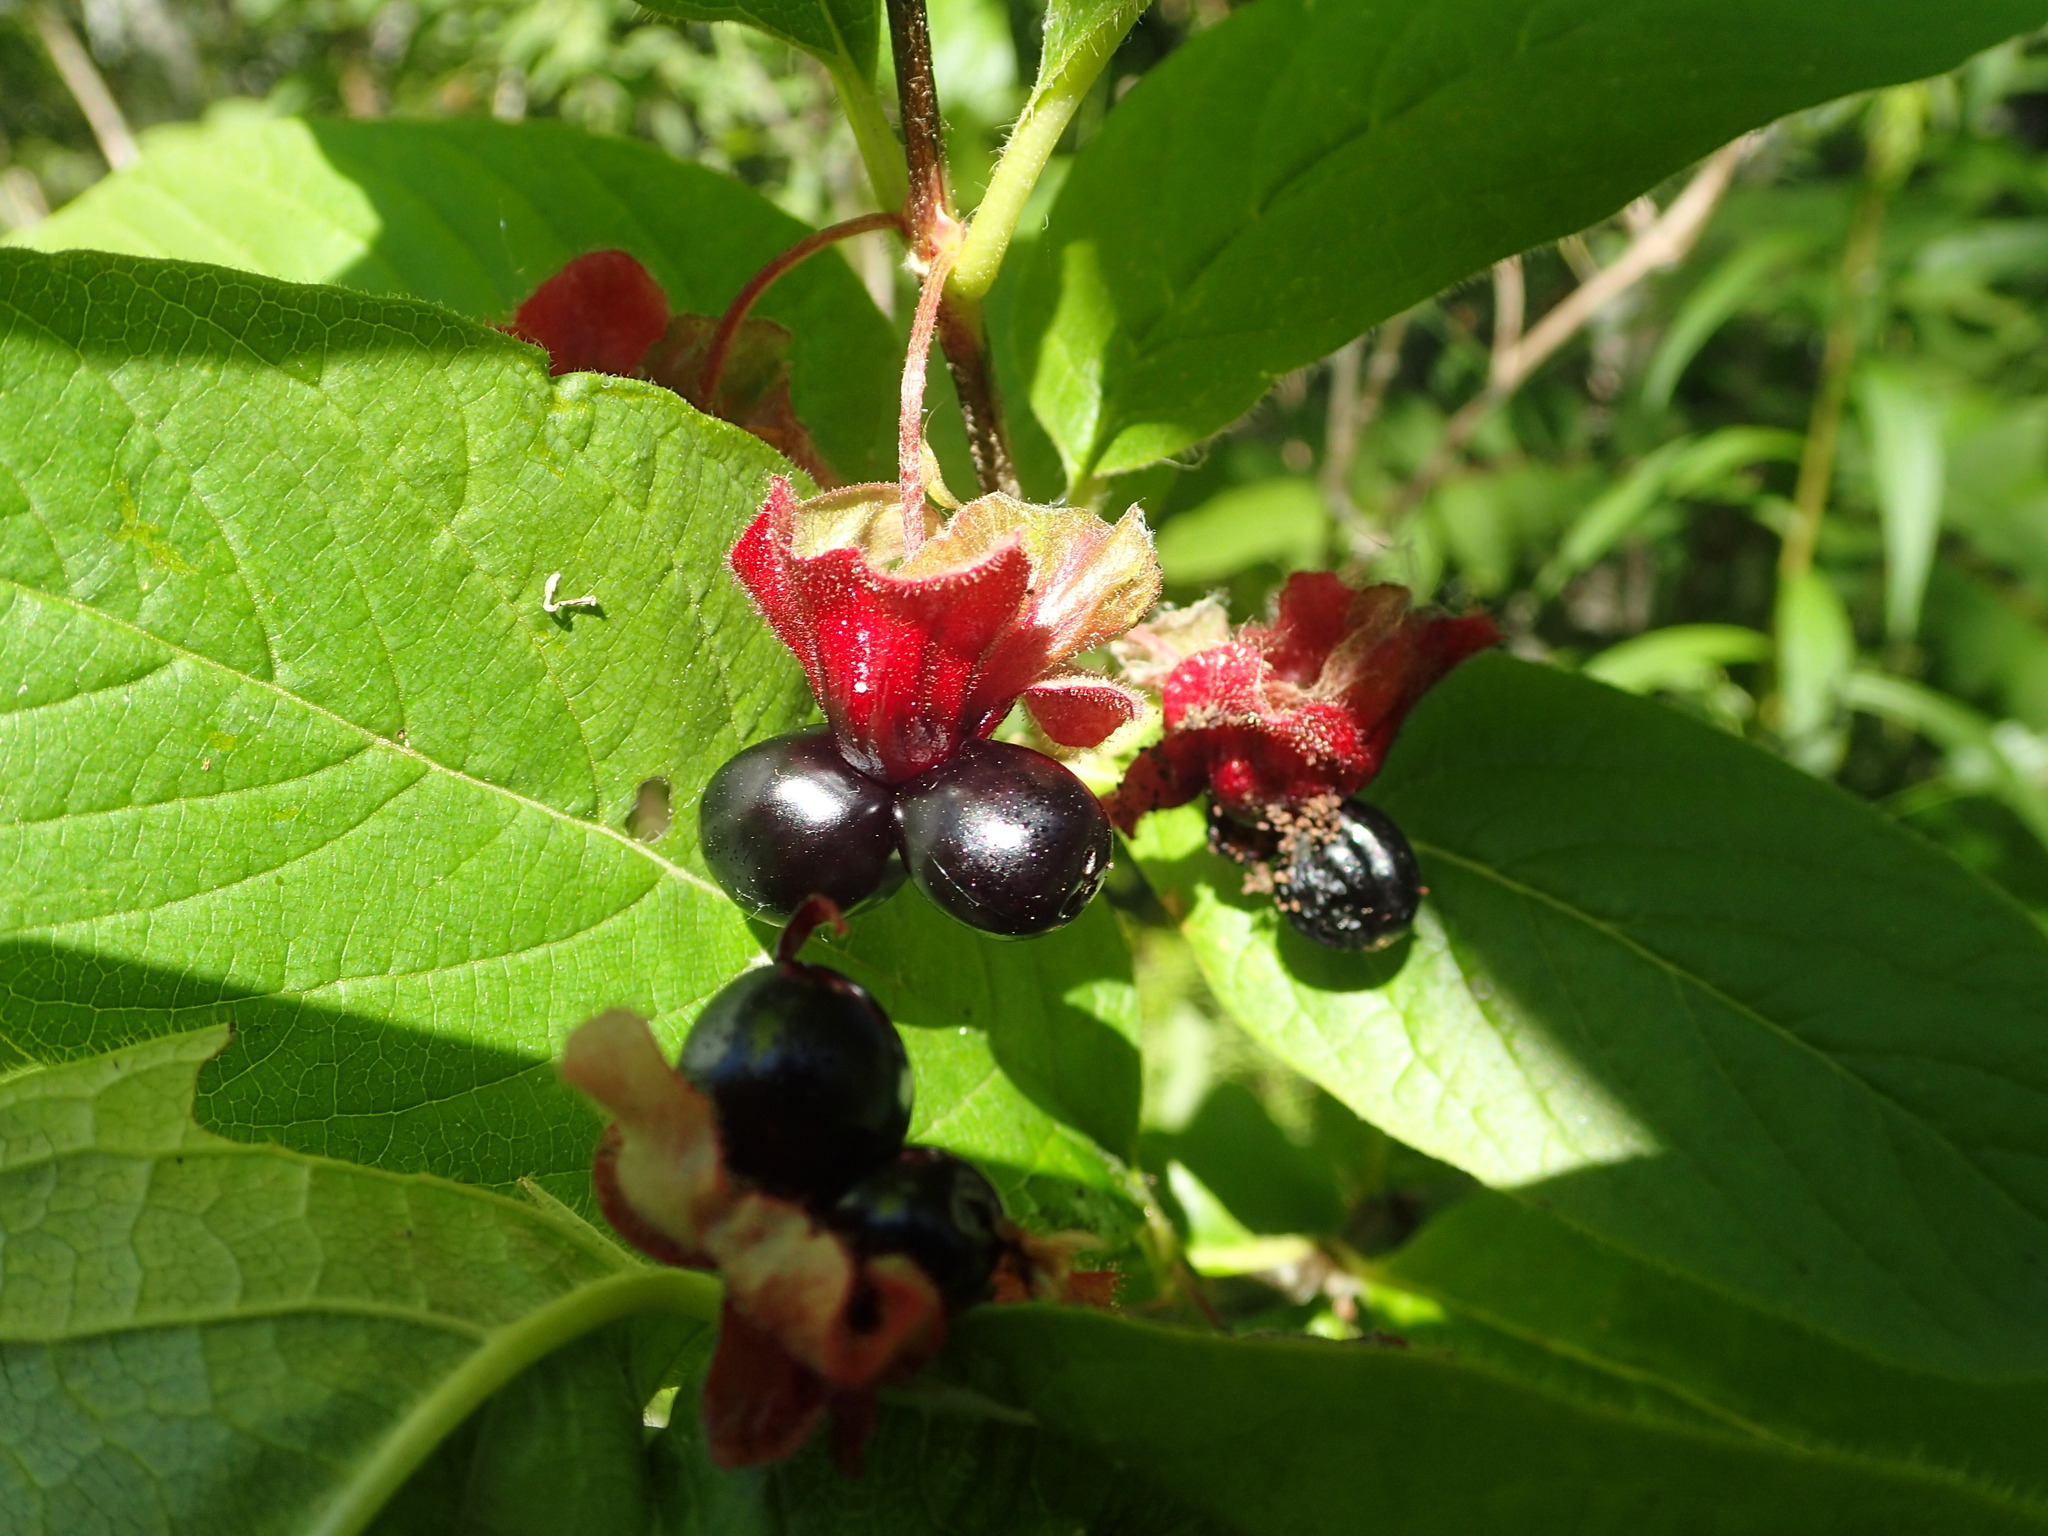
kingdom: Plantae
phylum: Tracheophyta
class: Magnoliopsida
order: Dipsacales
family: Caprifoliaceae
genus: Lonicera
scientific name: Lonicera involucrata
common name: Californian honeysuckle
